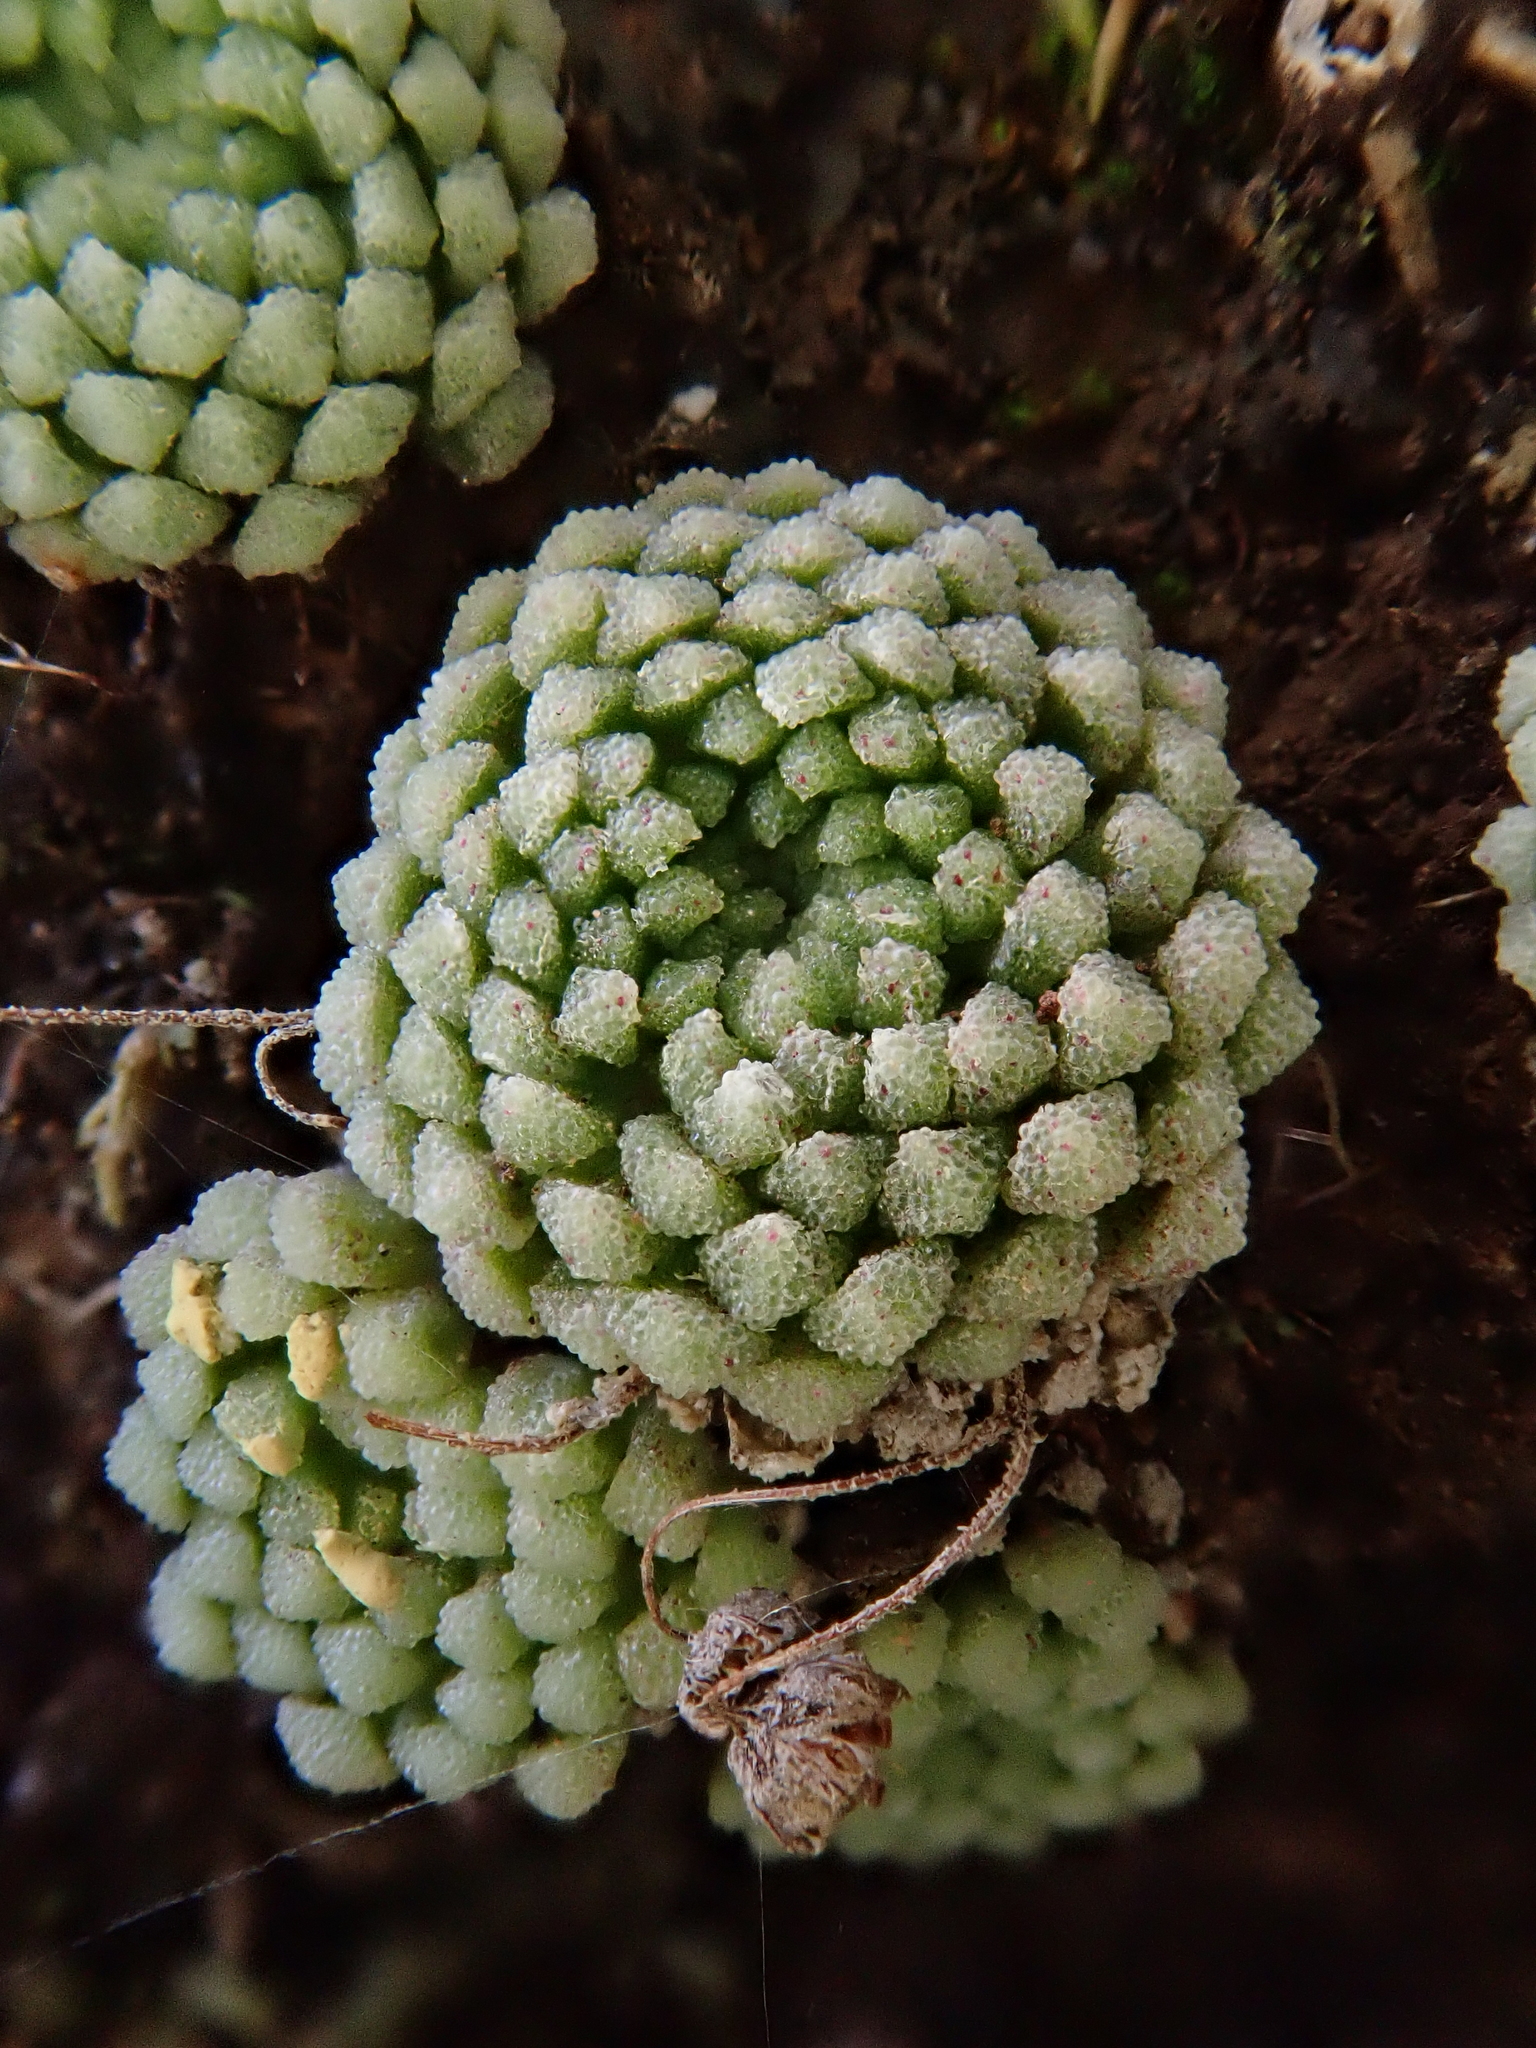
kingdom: Plantae
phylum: Tracheophyta
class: Magnoliopsida
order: Saxifragales
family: Crassulaceae
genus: Monanthes
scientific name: Monanthes pallens
